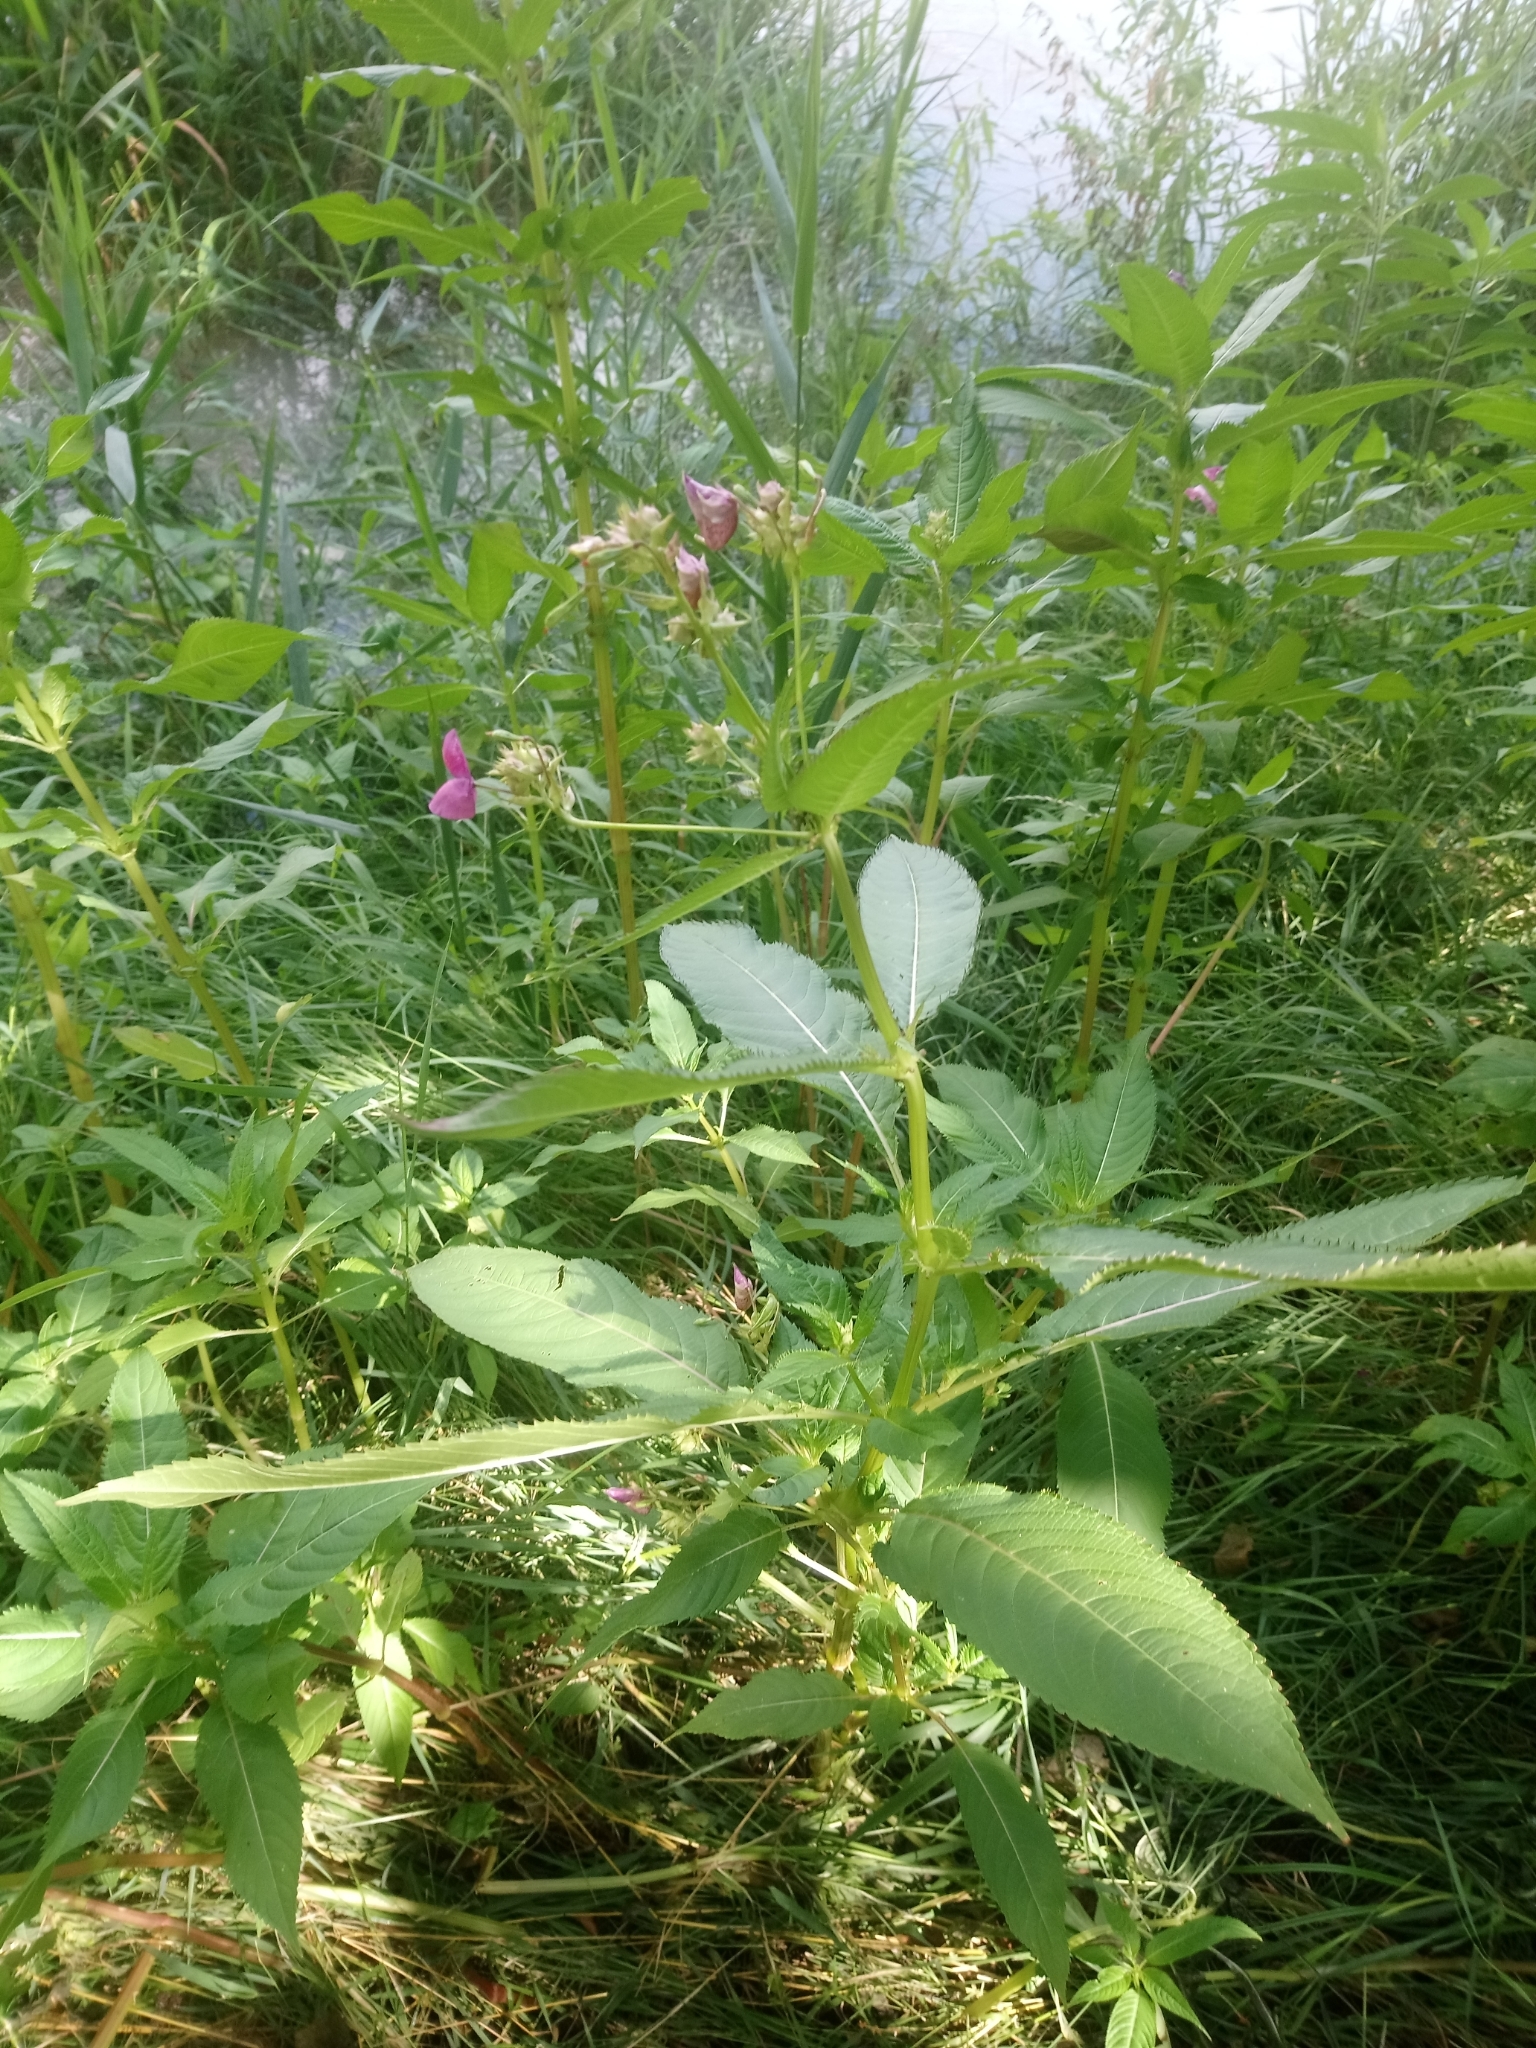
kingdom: Plantae
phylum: Tracheophyta
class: Magnoliopsida
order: Ericales
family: Balsaminaceae
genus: Impatiens
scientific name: Impatiens glandulifera
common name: Himalayan balsam
